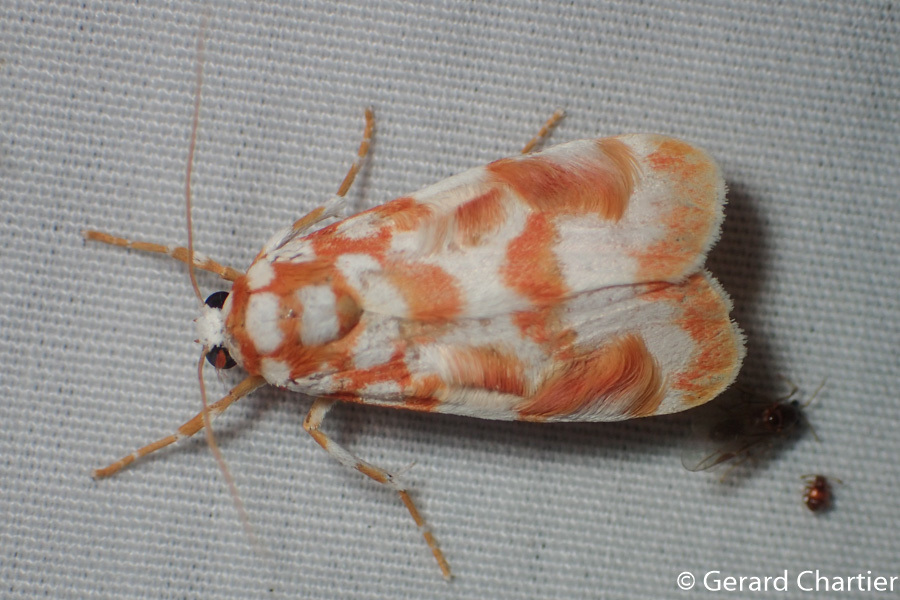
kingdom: Animalia
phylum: Arthropoda
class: Insecta
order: Lepidoptera
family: Erebidae
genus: Cyana
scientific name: Cyana costifimbria
